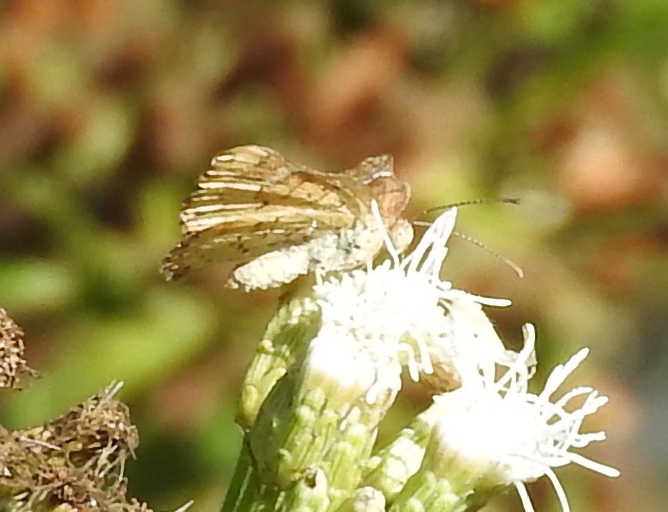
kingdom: Animalia
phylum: Arthropoda
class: Insecta
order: Lepidoptera
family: Riodinidae
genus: Curvie
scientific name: Curvie emesia
